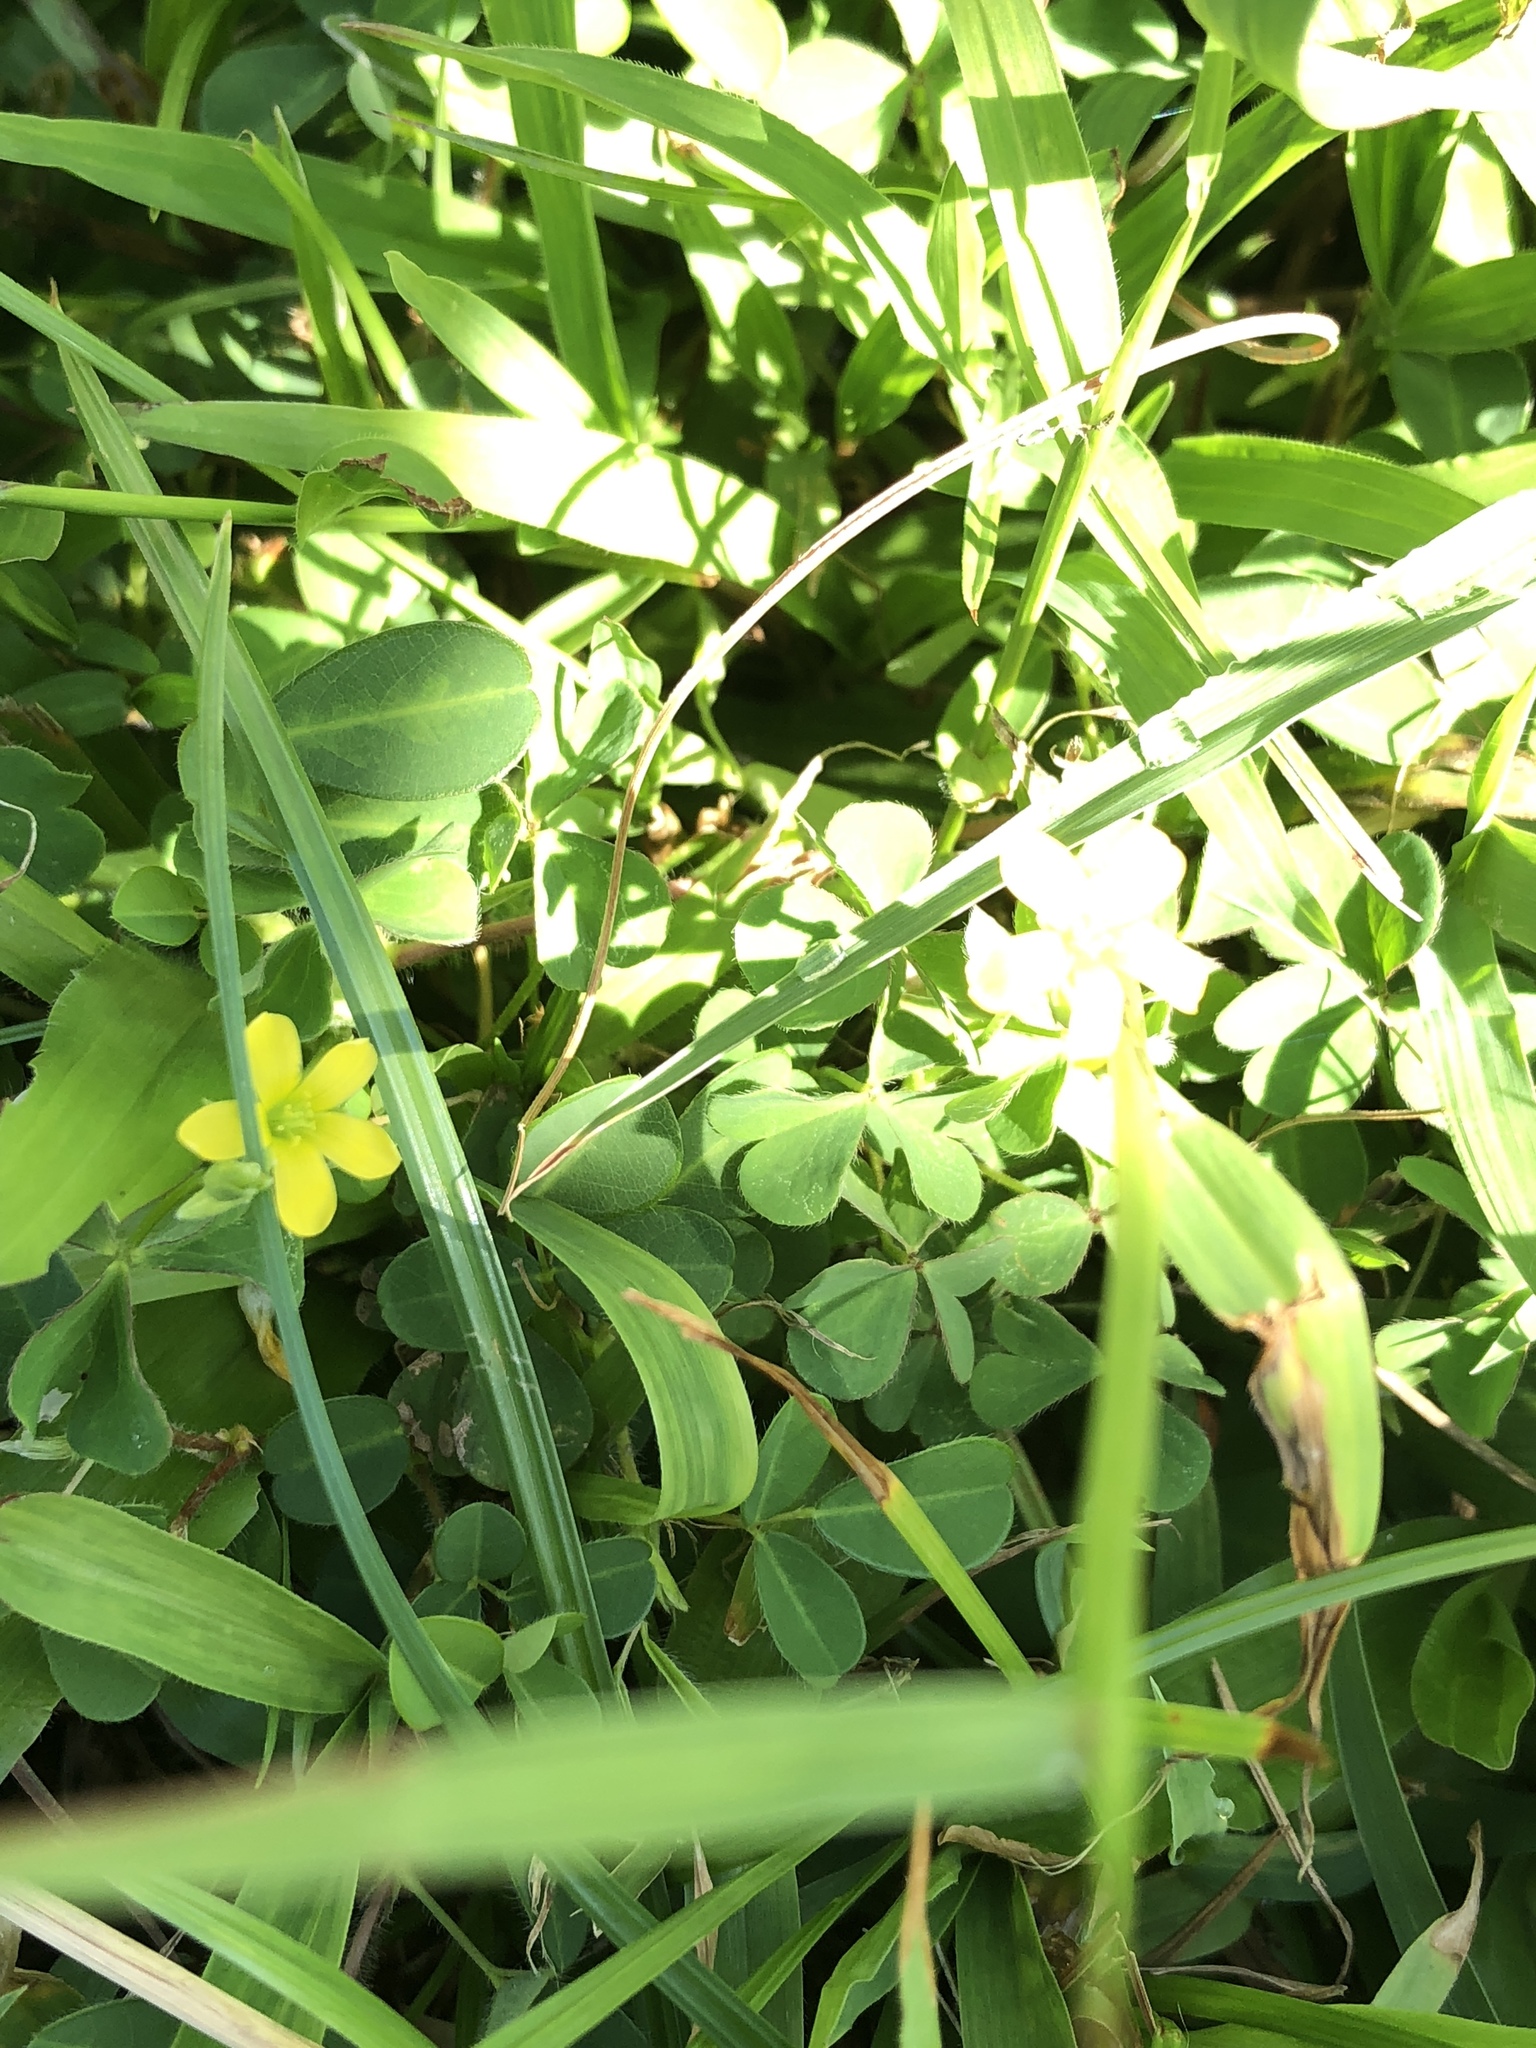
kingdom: Plantae
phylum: Tracheophyta
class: Magnoliopsida
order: Oxalidales
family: Oxalidaceae
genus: Oxalis
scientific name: Oxalis corniculata
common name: Procumbent yellow-sorrel
